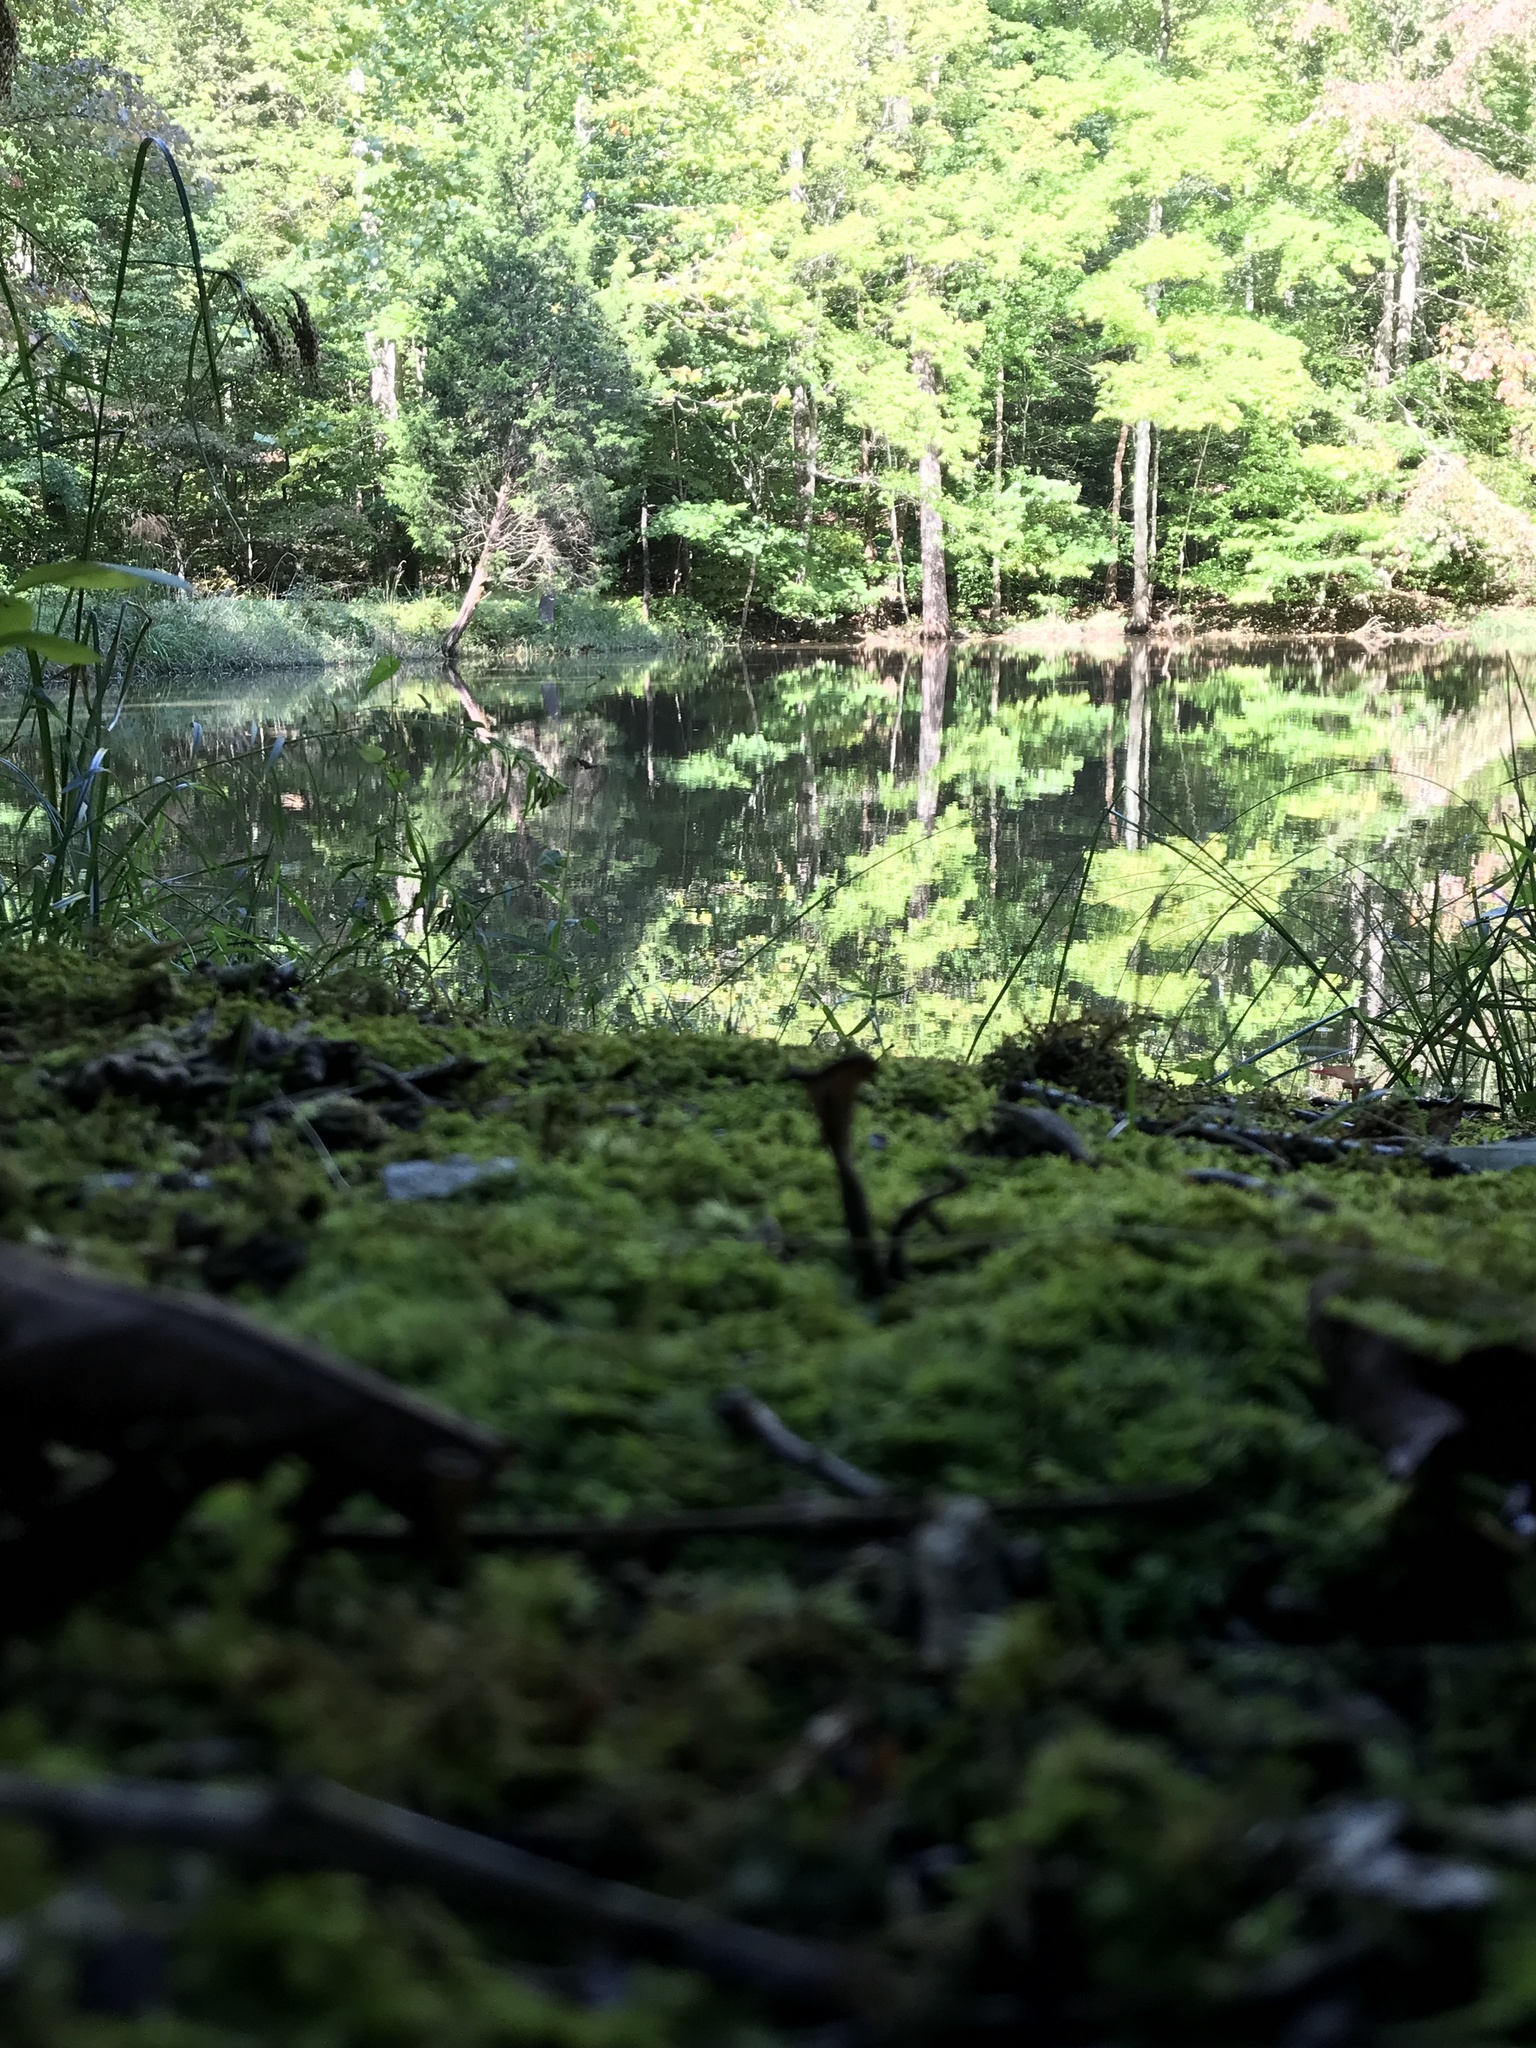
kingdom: Fungi
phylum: Basidiomycota
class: Agaricomycetes
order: Cantharellales
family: Hydnaceae
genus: Craterellus
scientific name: Craterellus cornucopioides
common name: Horn of plenty
